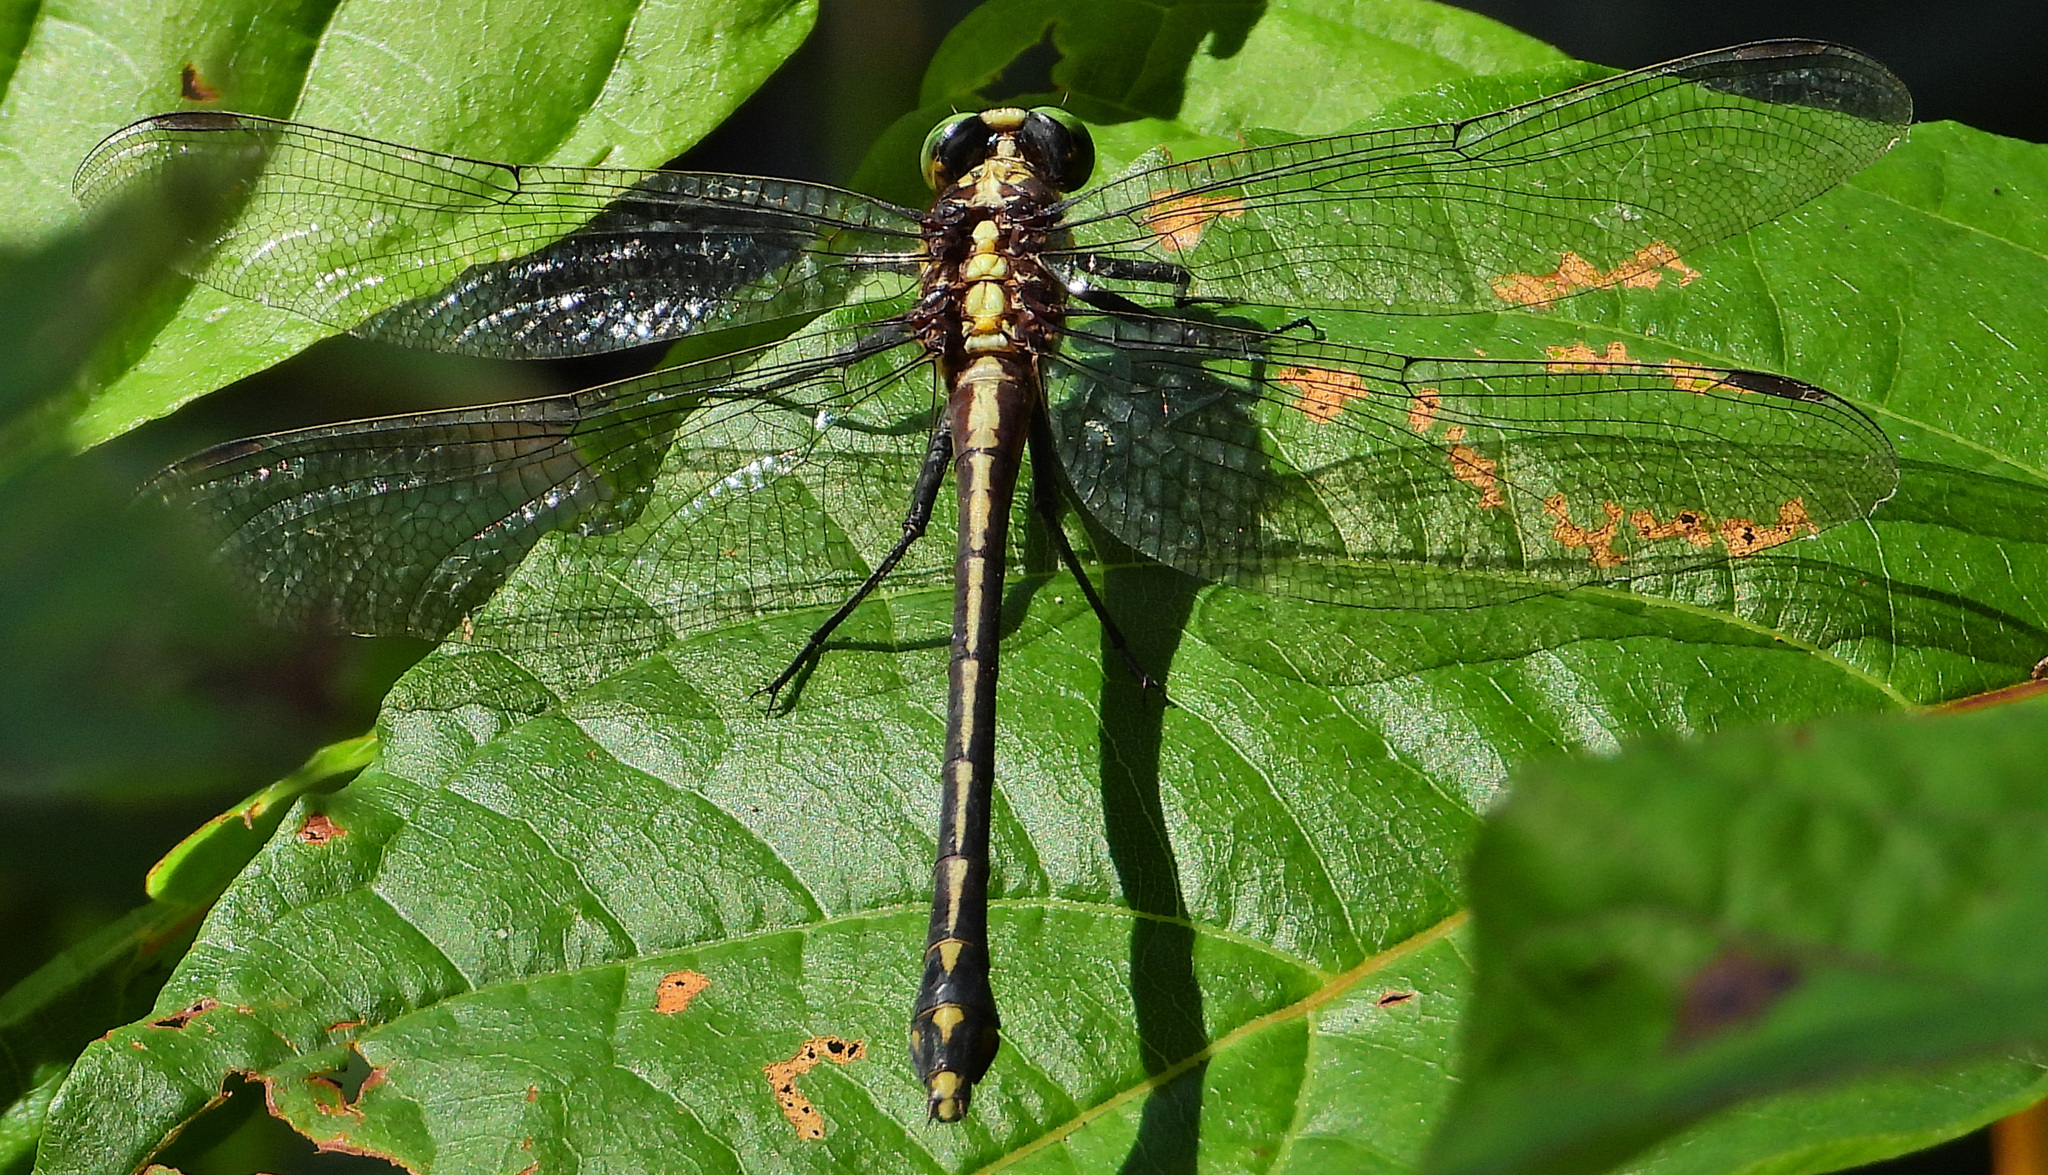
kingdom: Animalia
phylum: Arthropoda
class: Insecta
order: Odonata
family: Gomphidae
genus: Dromogomphus
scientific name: Dromogomphus spinosus
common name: Black-shouldered spinyleg
